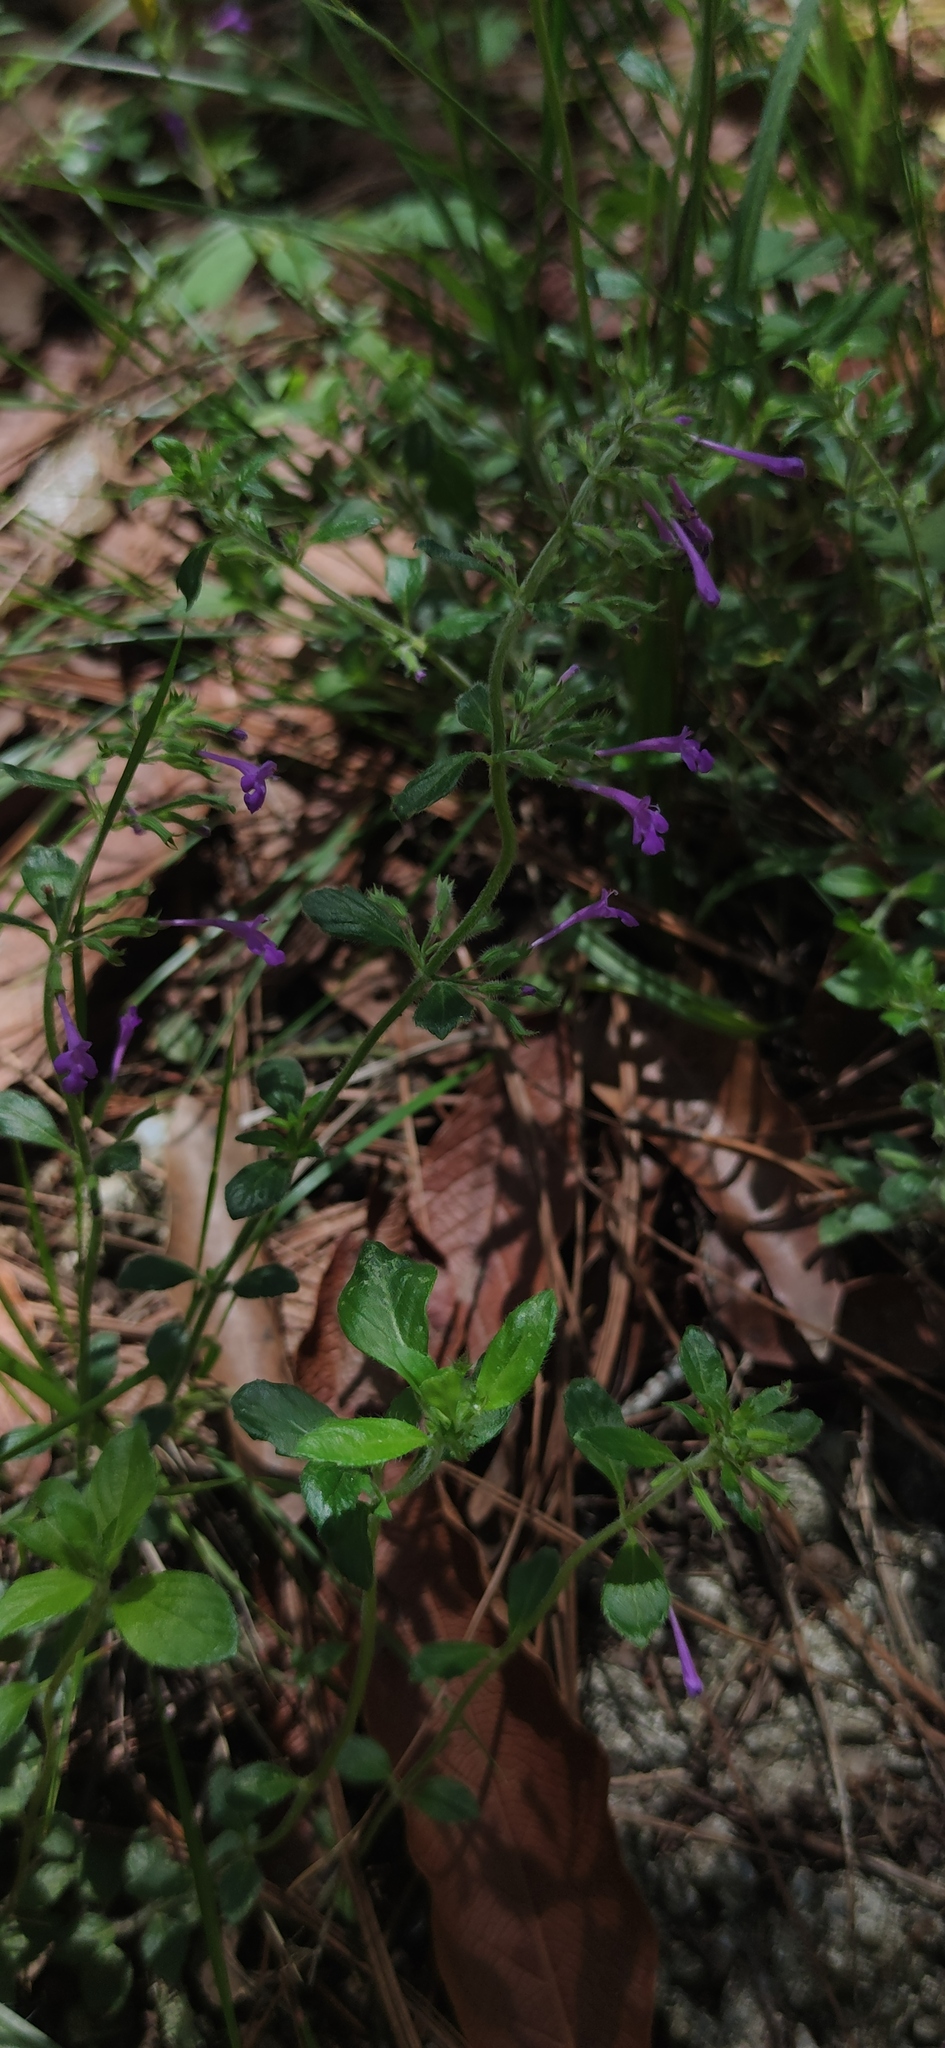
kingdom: Plantae
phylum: Tracheophyta
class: Magnoliopsida
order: Lamiales
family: Lamiaceae
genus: Hedeoma
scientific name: Hedeoma costata
